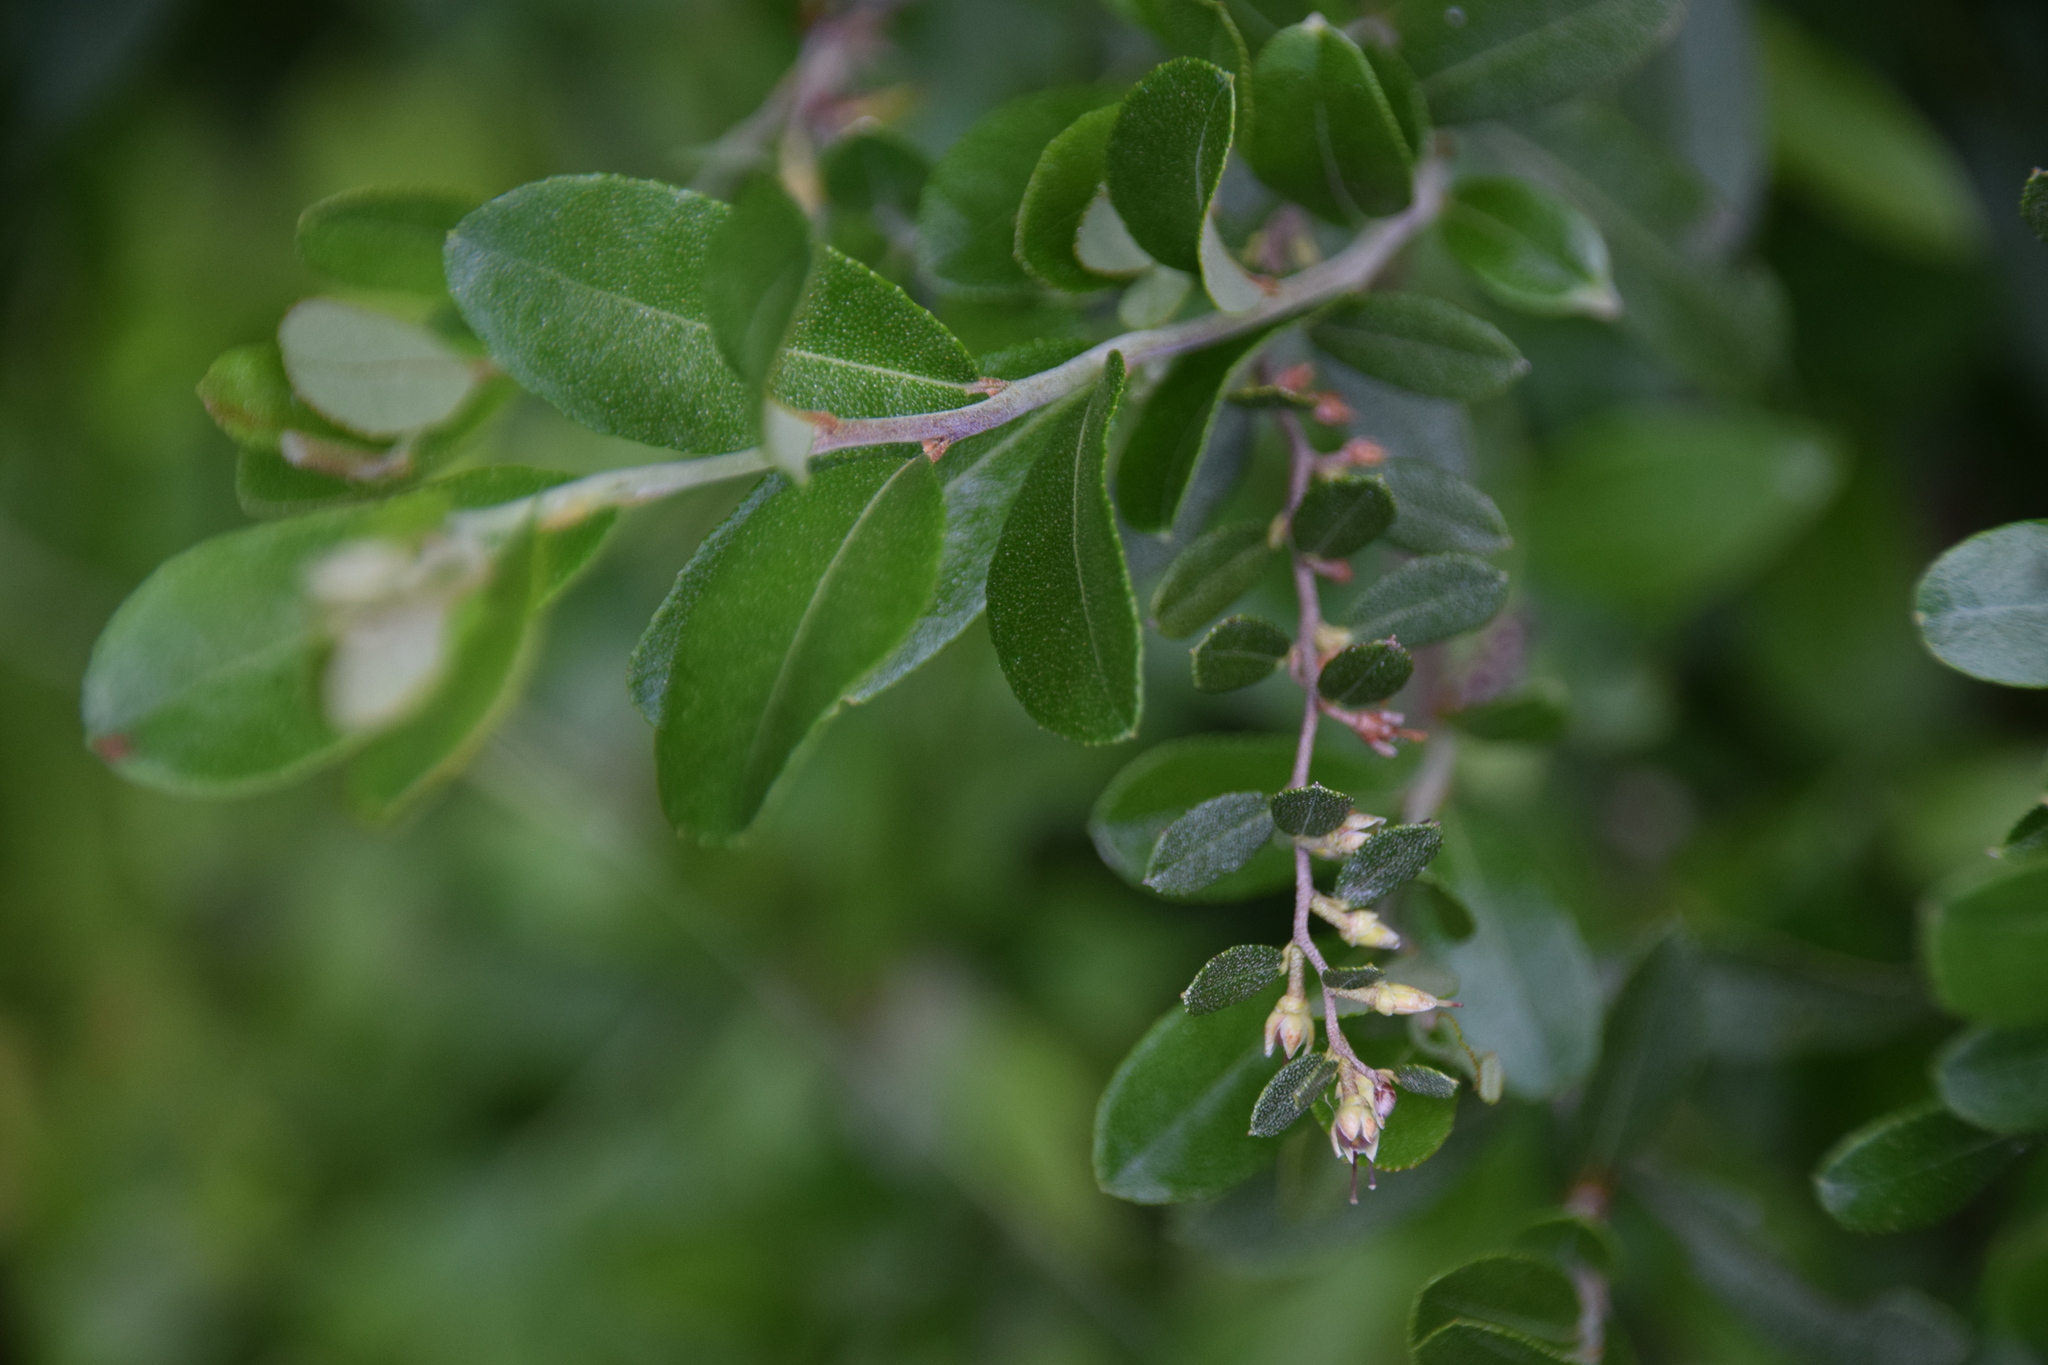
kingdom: Plantae
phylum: Tracheophyta
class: Magnoliopsida
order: Ericales
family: Ericaceae
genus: Chamaedaphne
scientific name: Chamaedaphne calyculata
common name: Leatherleaf
